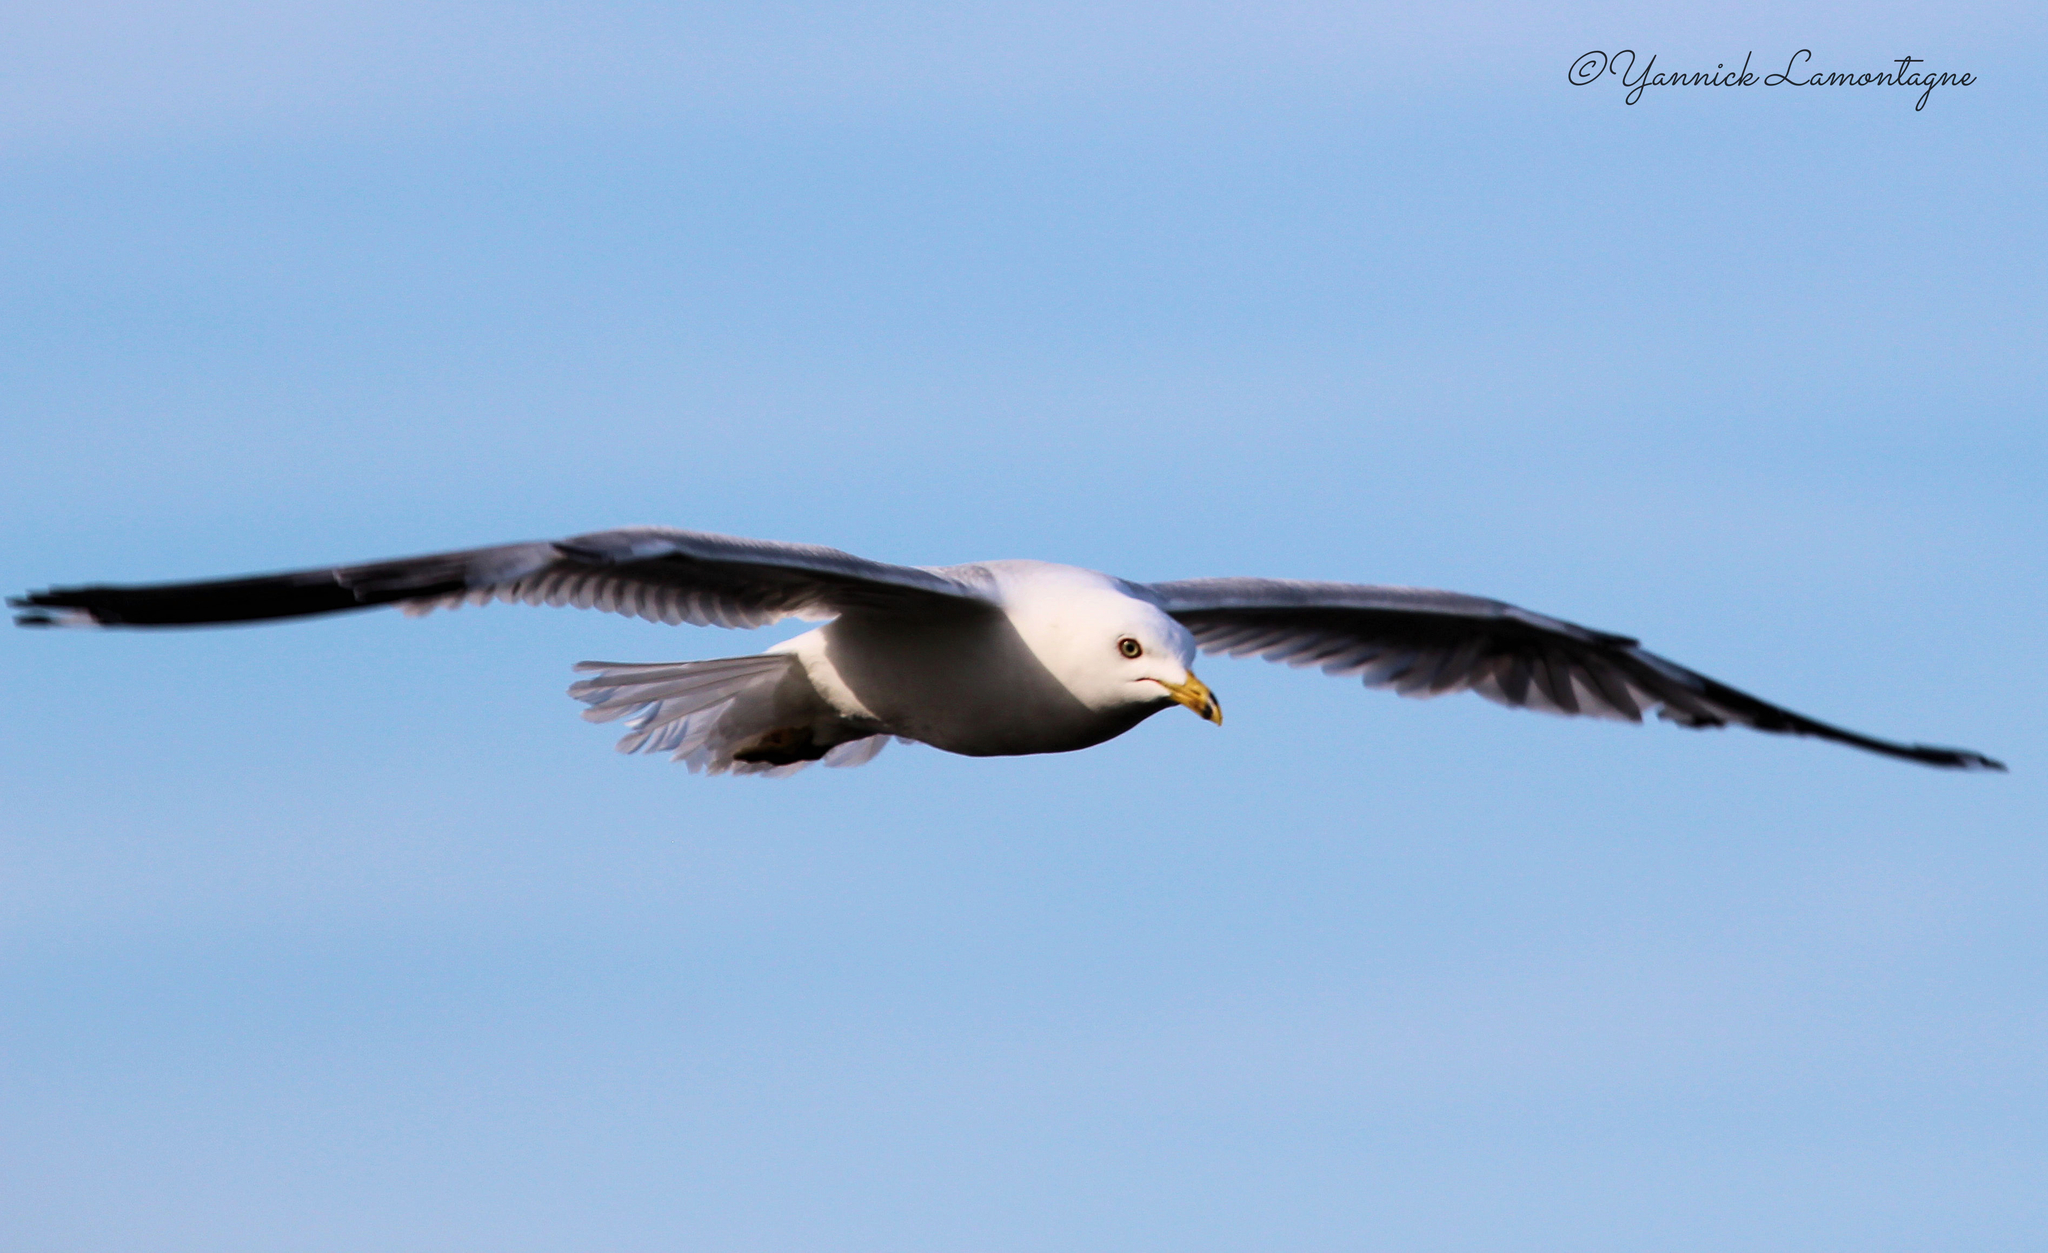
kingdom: Animalia
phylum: Chordata
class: Aves
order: Charadriiformes
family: Laridae
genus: Larus
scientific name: Larus delawarensis
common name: Ring-billed gull
